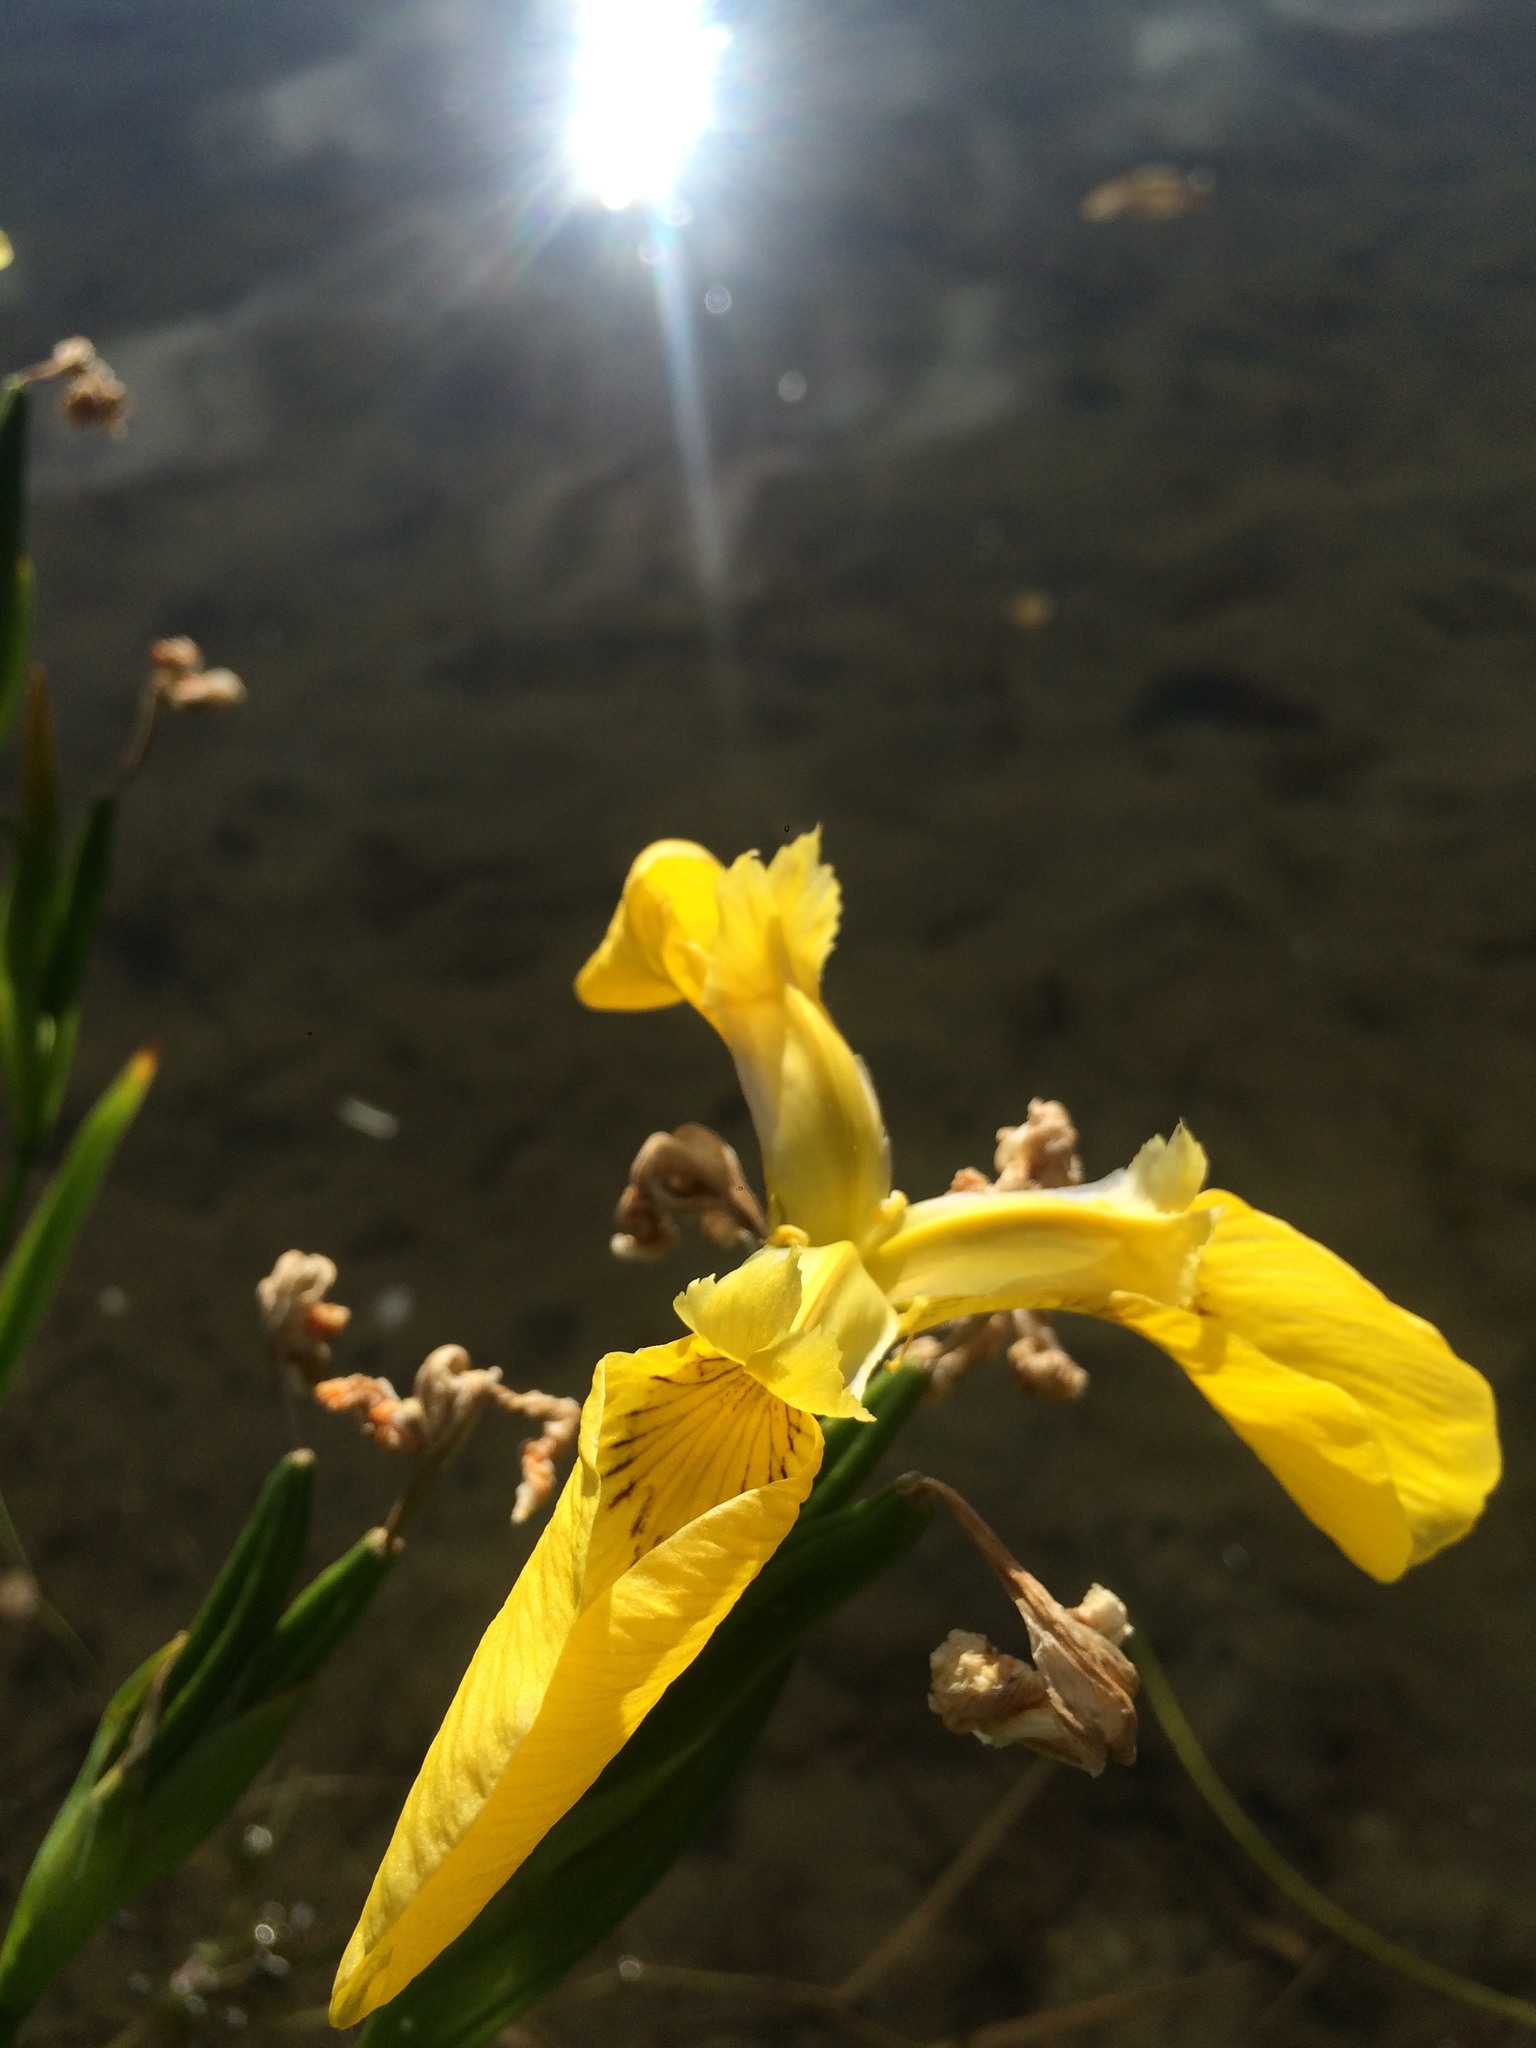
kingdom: Plantae
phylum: Tracheophyta
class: Liliopsida
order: Asparagales
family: Iridaceae
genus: Iris
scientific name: Iris pseudacorus
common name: Yellow flag
